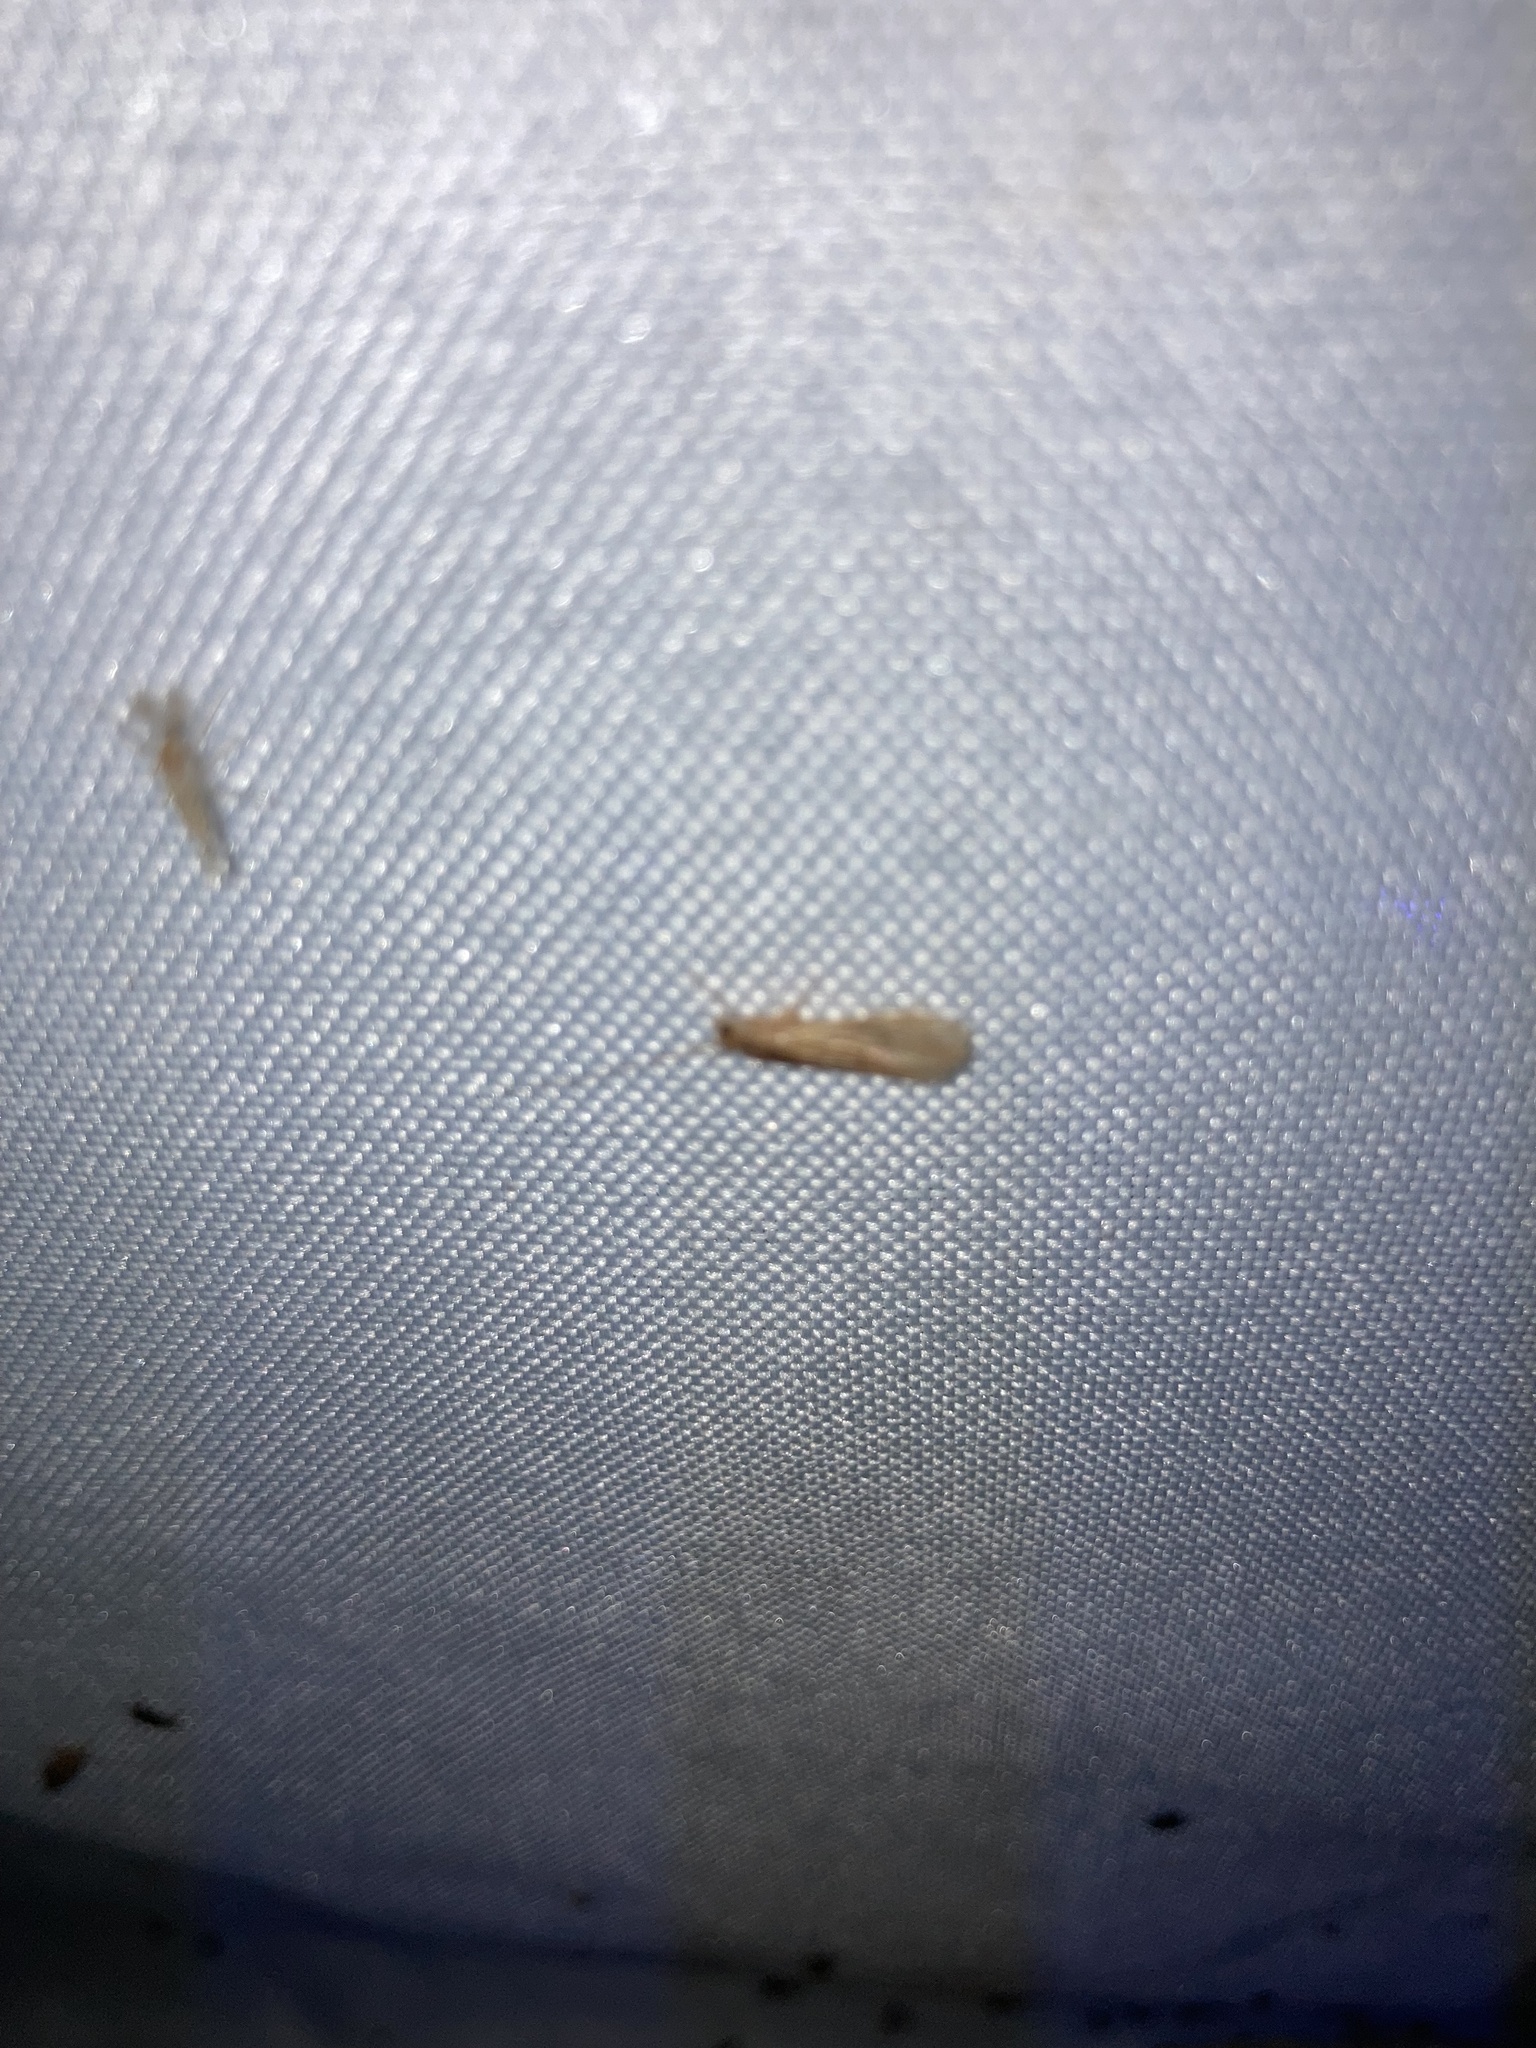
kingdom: Animalia
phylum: Arthropoda
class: Insecta
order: Trichoptera
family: Hydropsychidae
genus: Potamyia
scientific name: Potamyia flava
